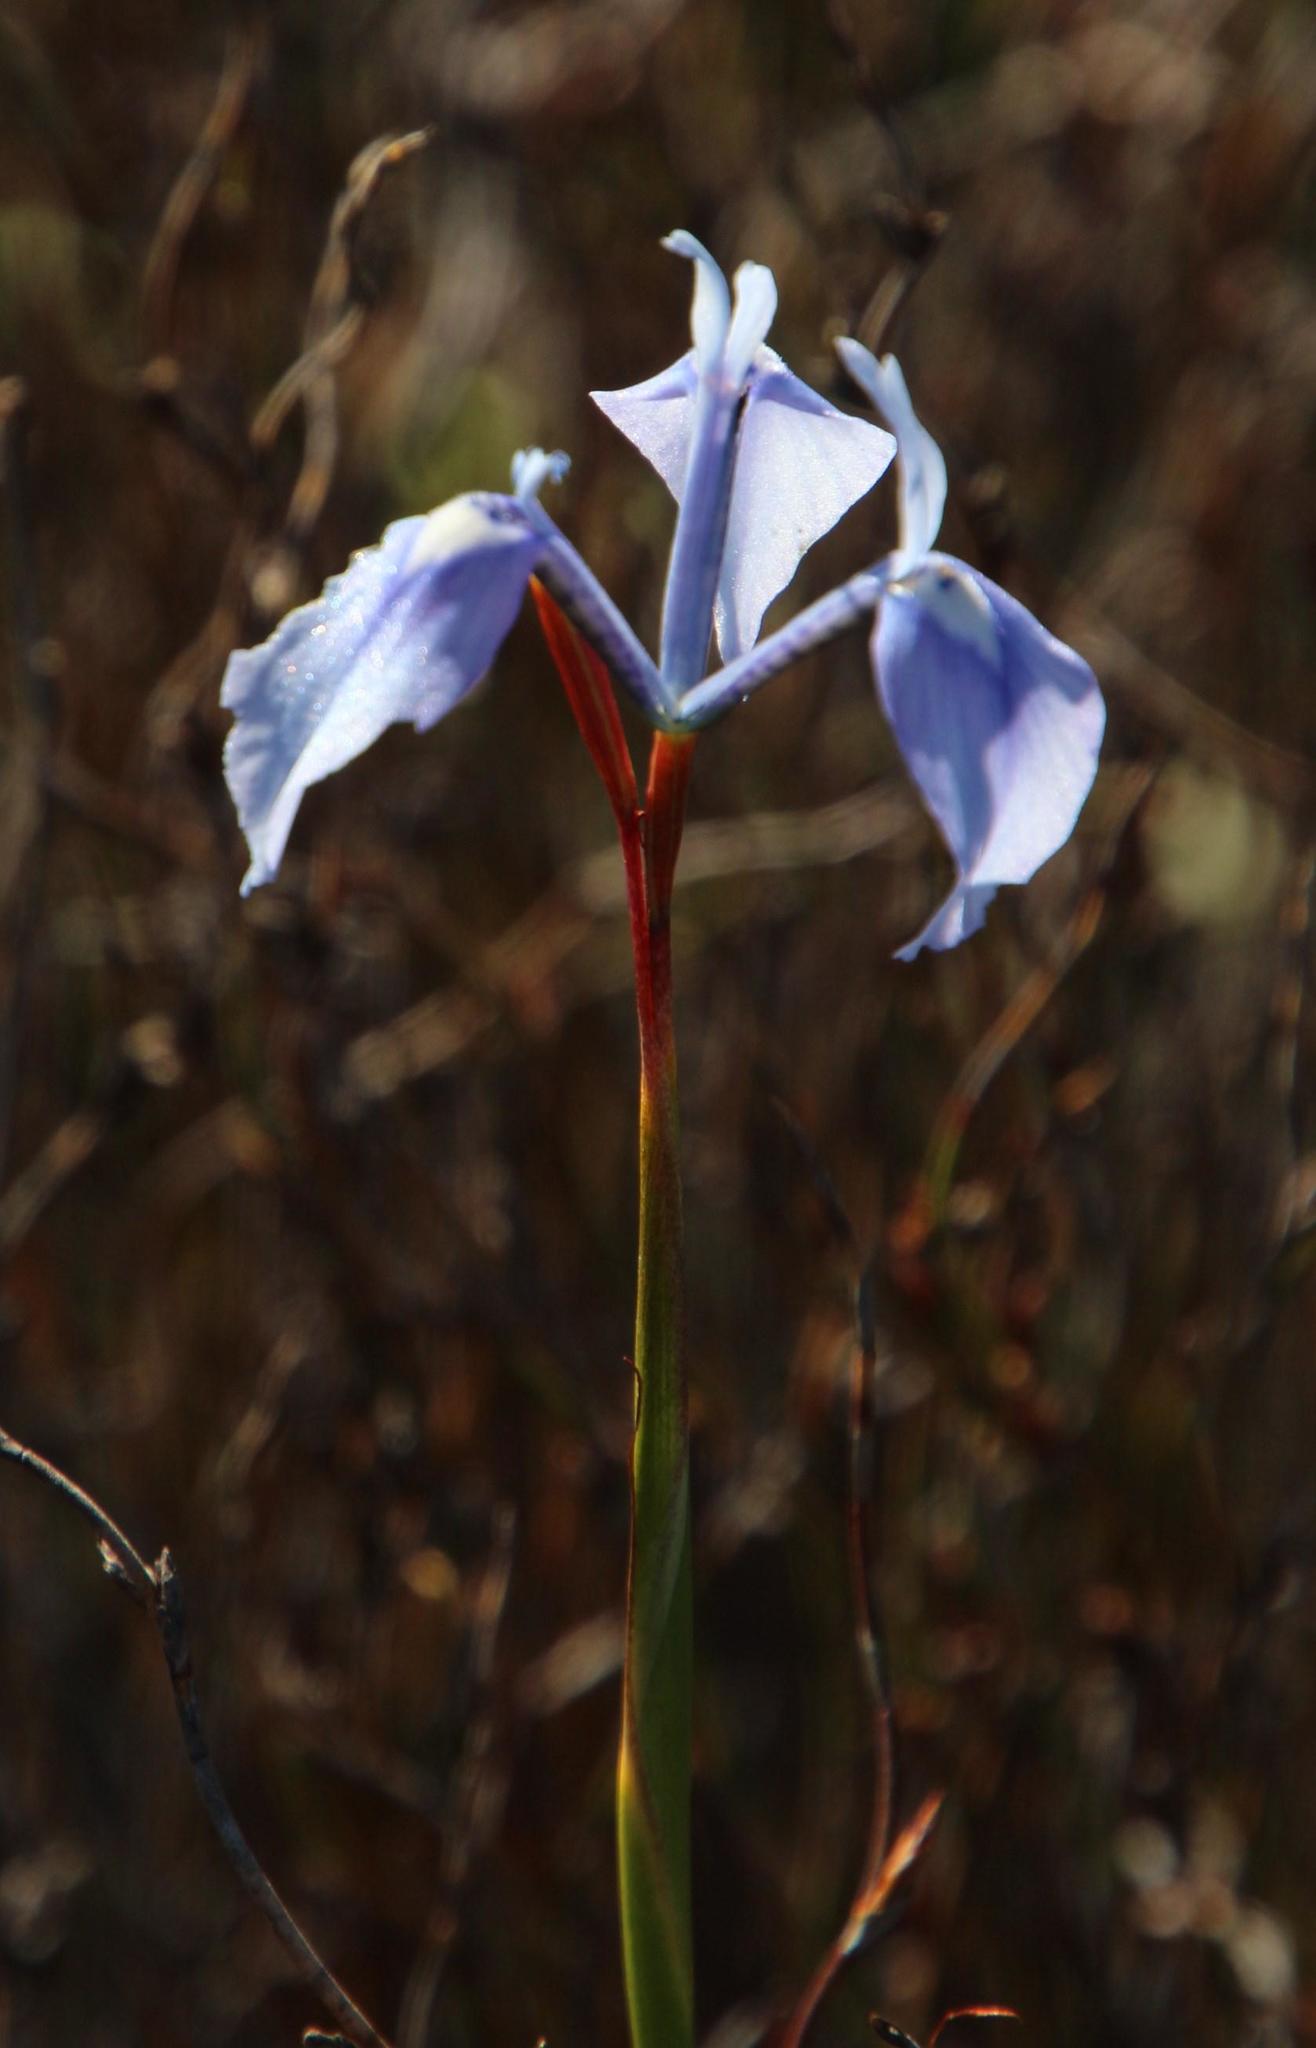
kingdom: Plantae
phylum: Tracheophyta
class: Liliopsida
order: Asparagales
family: Iridaceae
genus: Moraea
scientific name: Moraea tripetala
